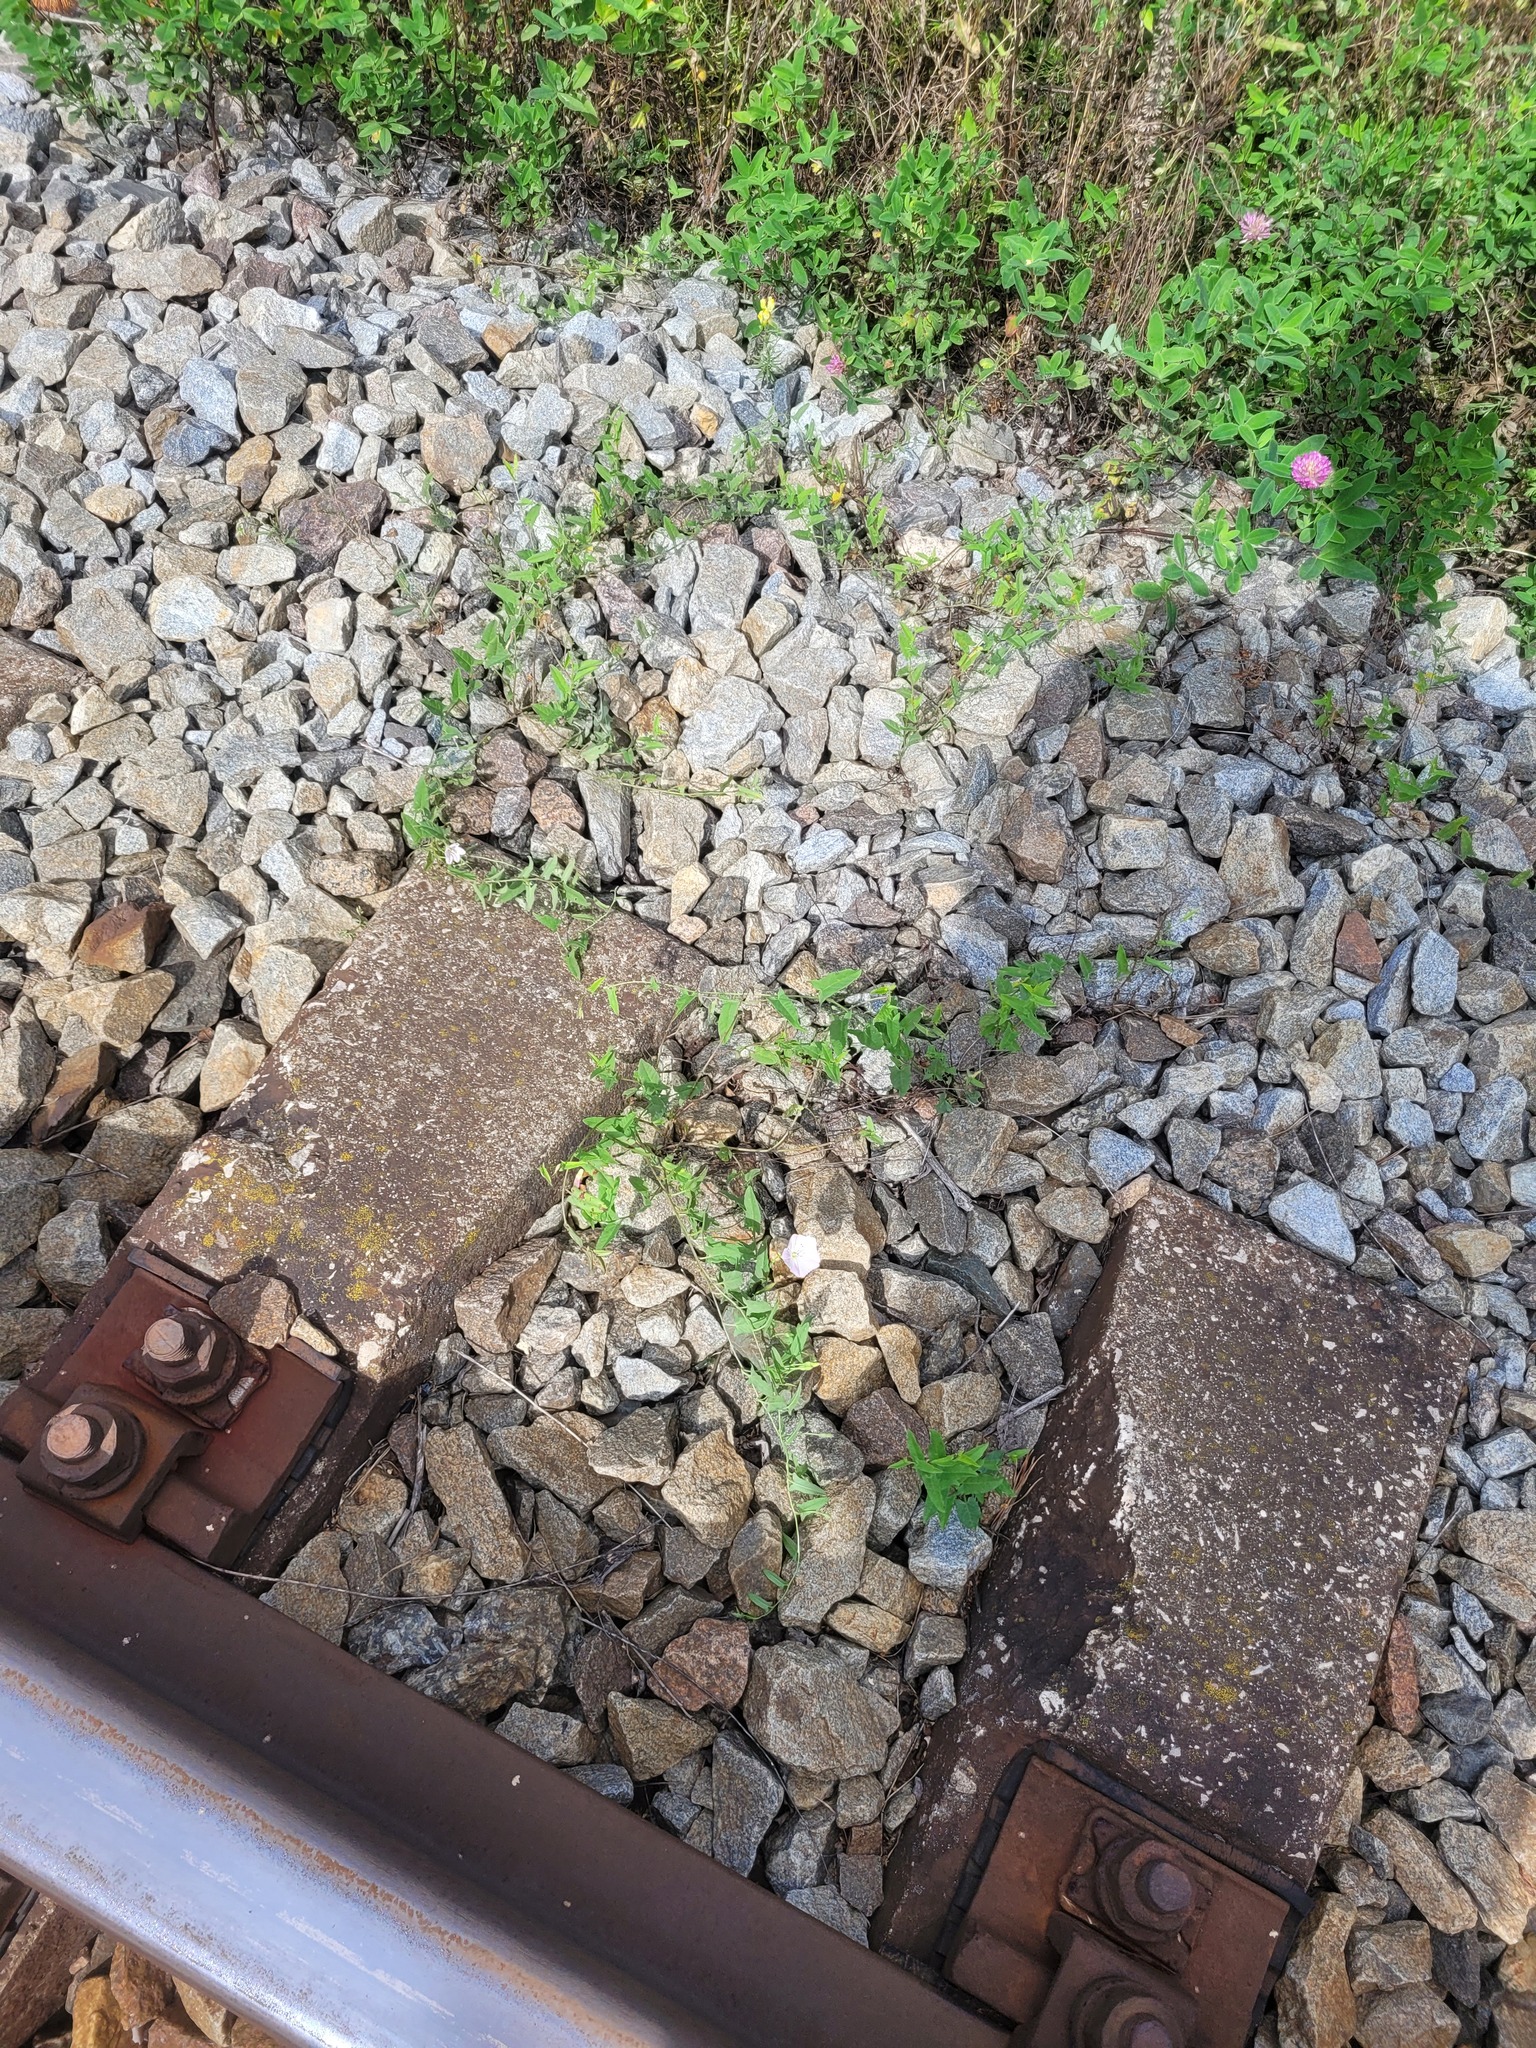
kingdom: Plantae
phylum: Tracheophyta
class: Magnoliopsida
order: Solanales
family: Convolvulaceae
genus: Convolvulus
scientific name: Convolvulus arvensis
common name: Field bindweed
